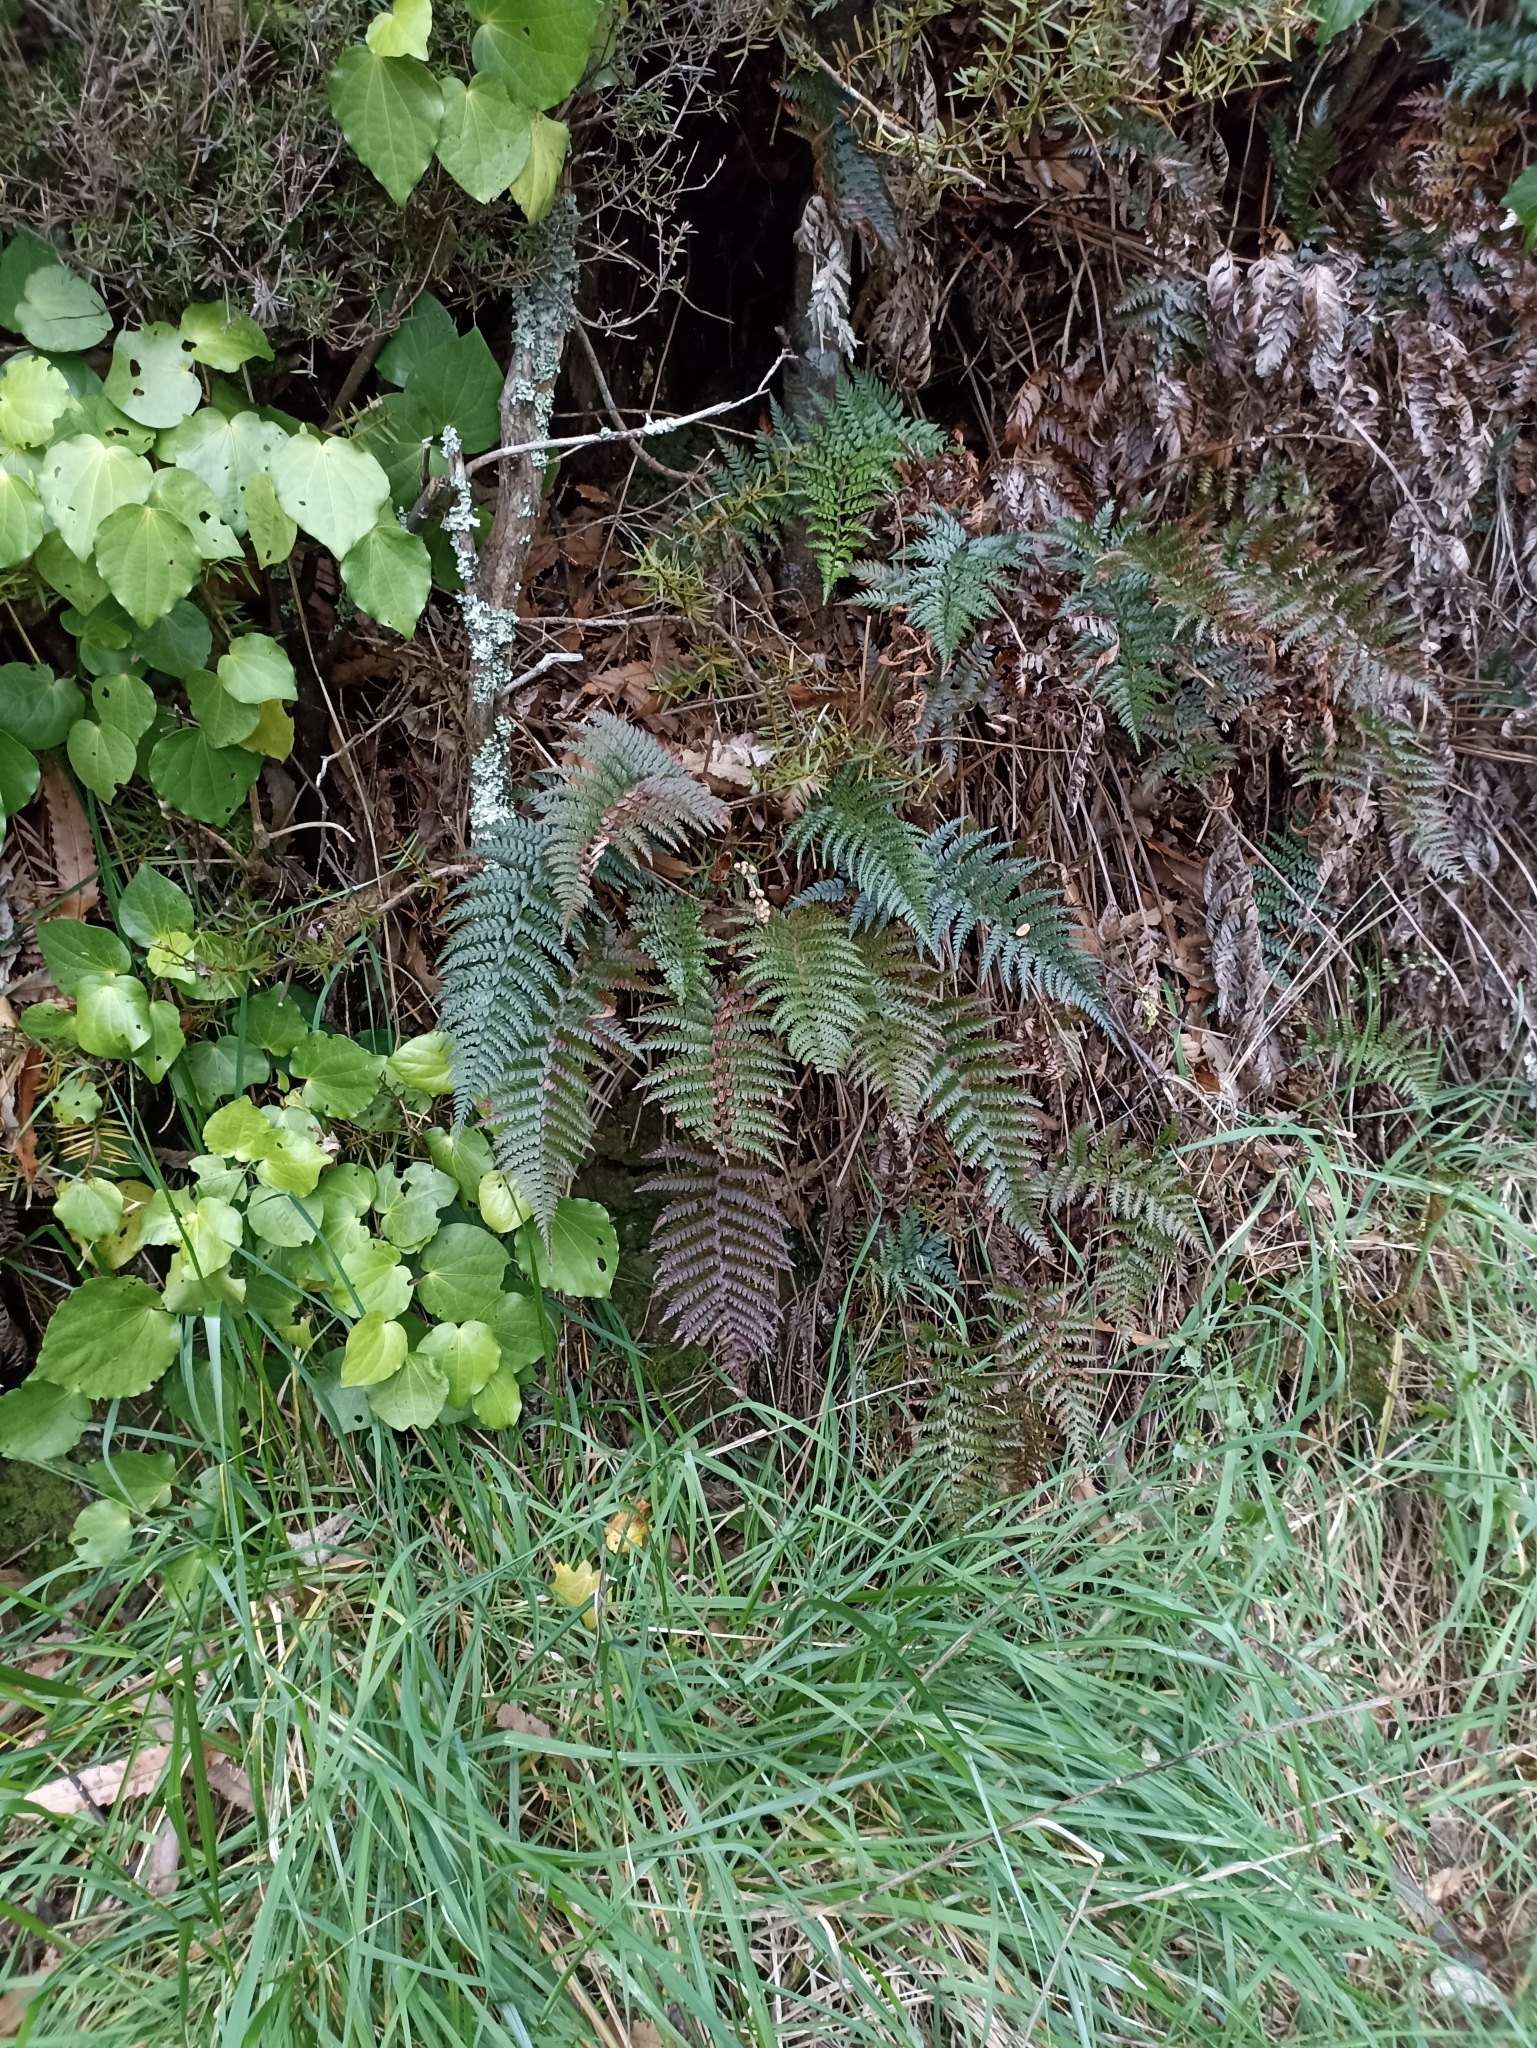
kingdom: Plantae
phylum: Tracheophyta
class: Polypodiopsida
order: Polypodiales
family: Dryopteridaceae
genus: Polystichum
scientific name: Polystichum neozelandicum
